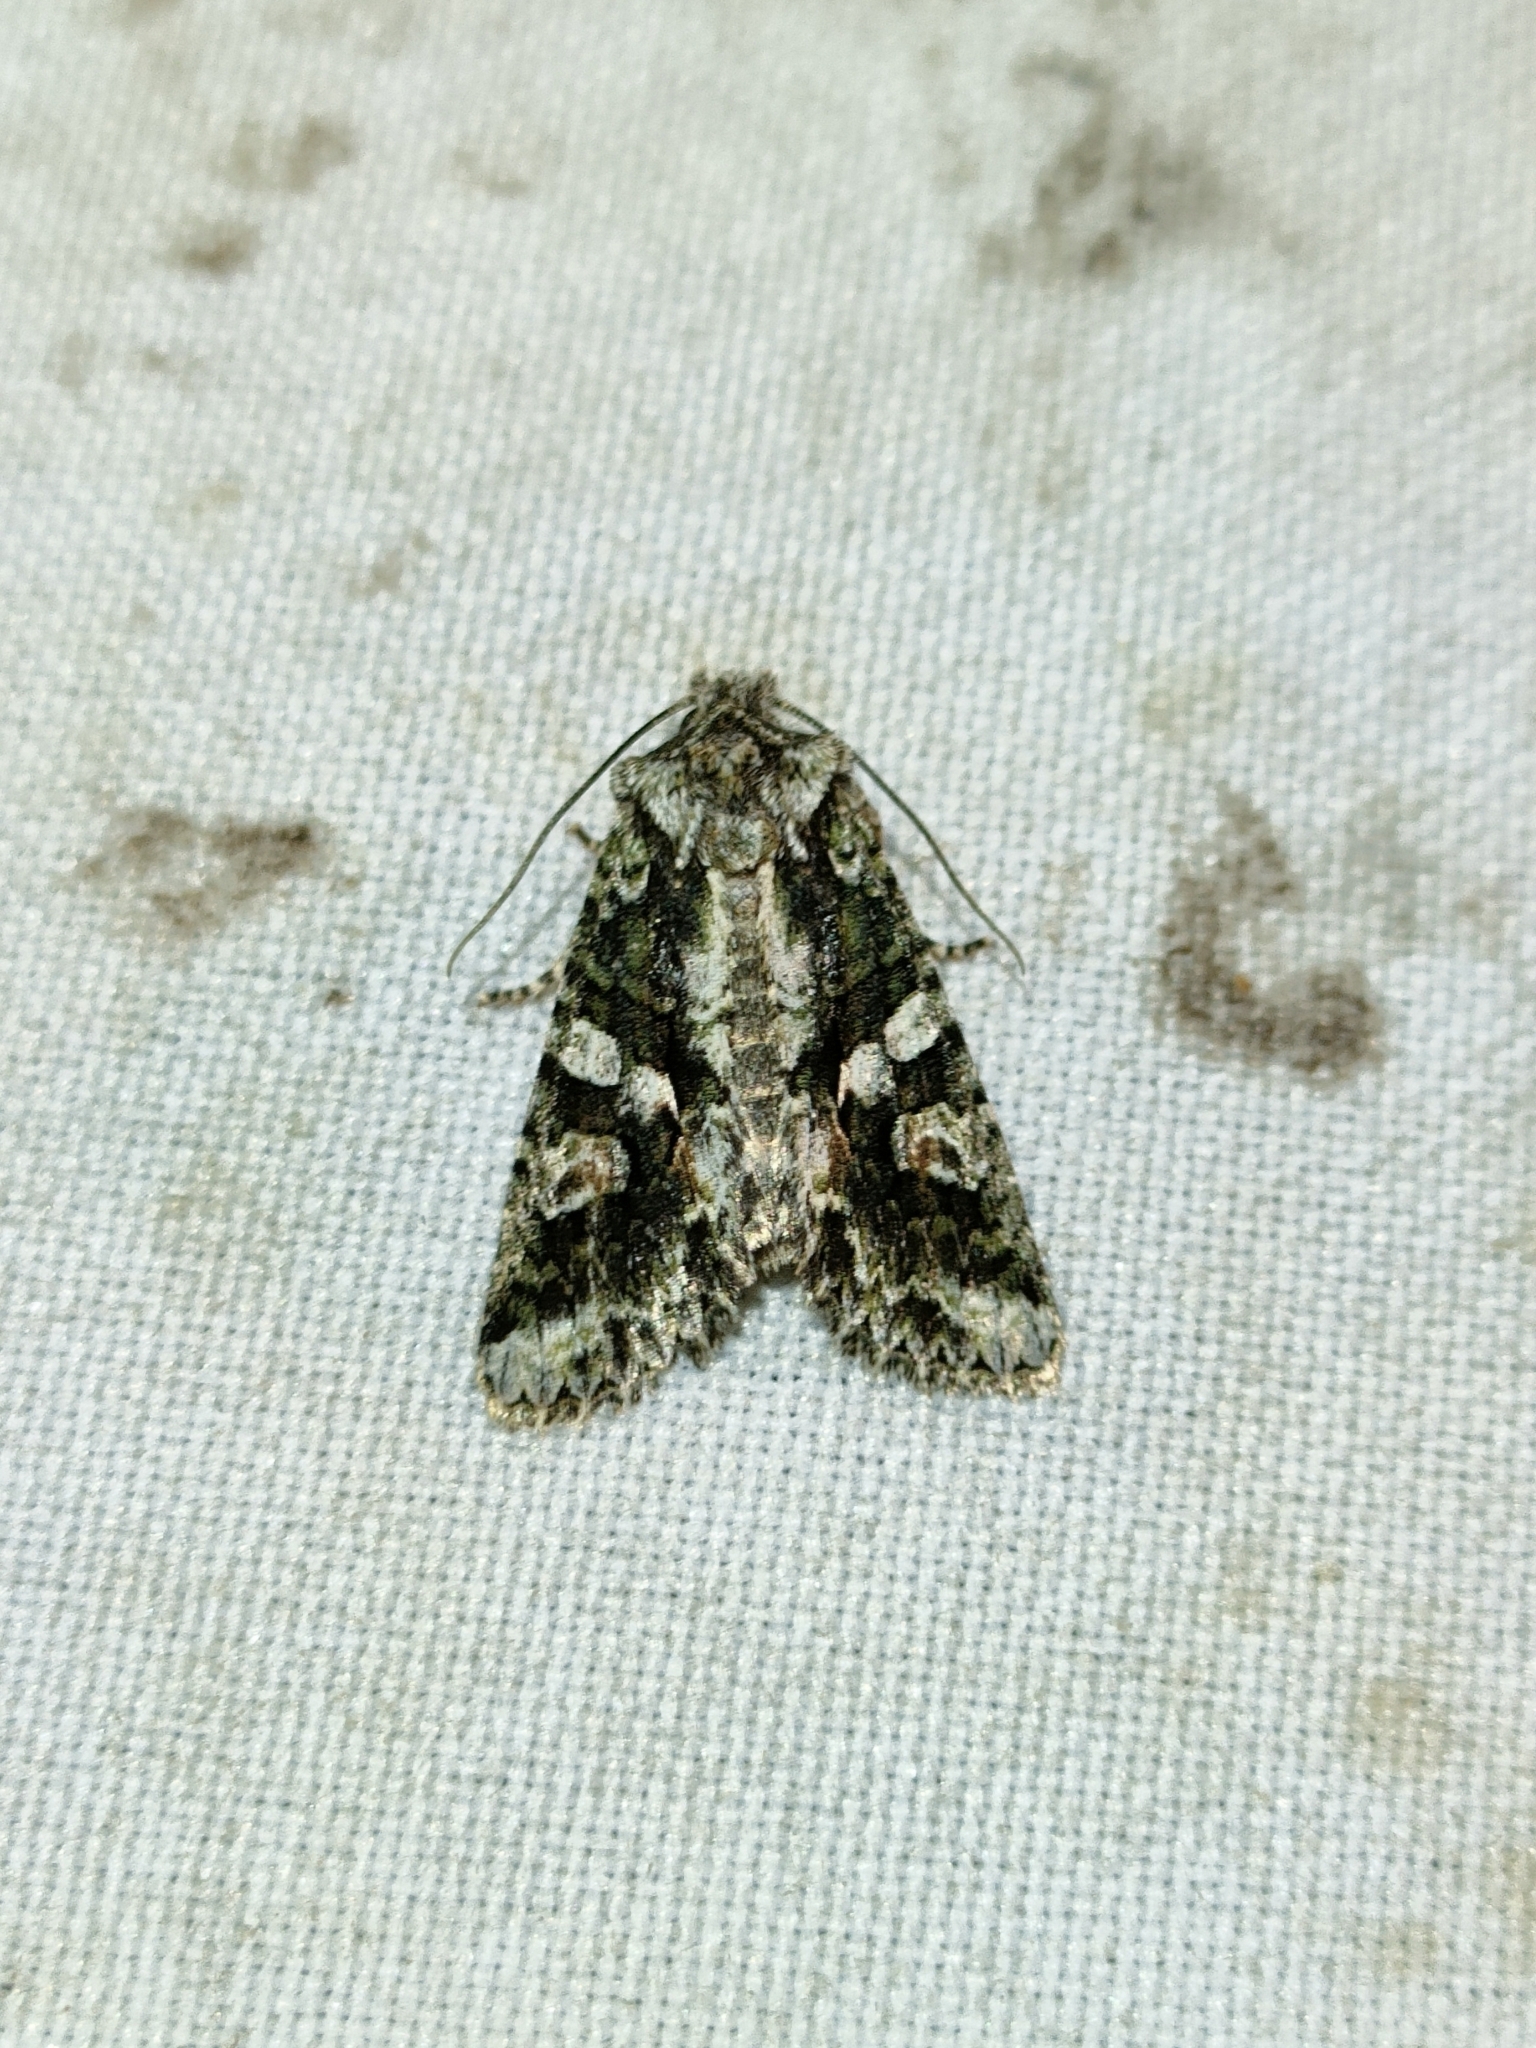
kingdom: Animalia
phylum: Arthropoda
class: Insecta
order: Lepidoptera
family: Noctuidae
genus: Dryobotodes
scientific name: Dryobotodes eremita
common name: Brindled green
